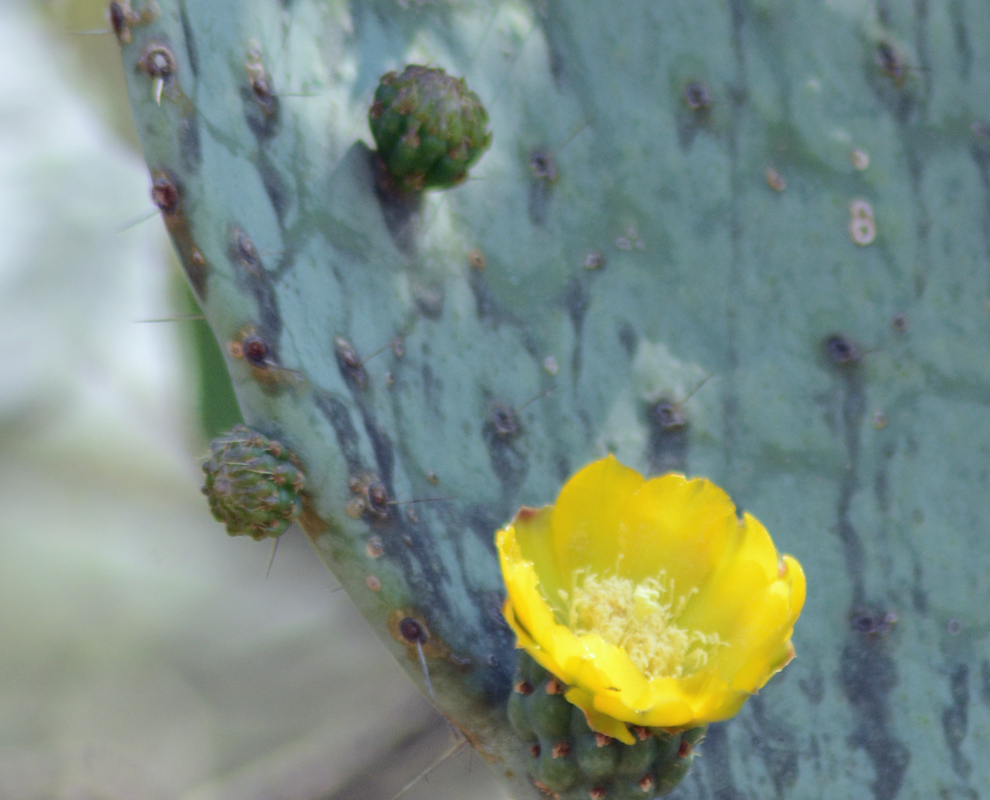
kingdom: Plantae
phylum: Tracheophyta
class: Magnoliopsida
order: Caryophyllales
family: Cactaceae
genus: Opuntia
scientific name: Opuntia robusta
